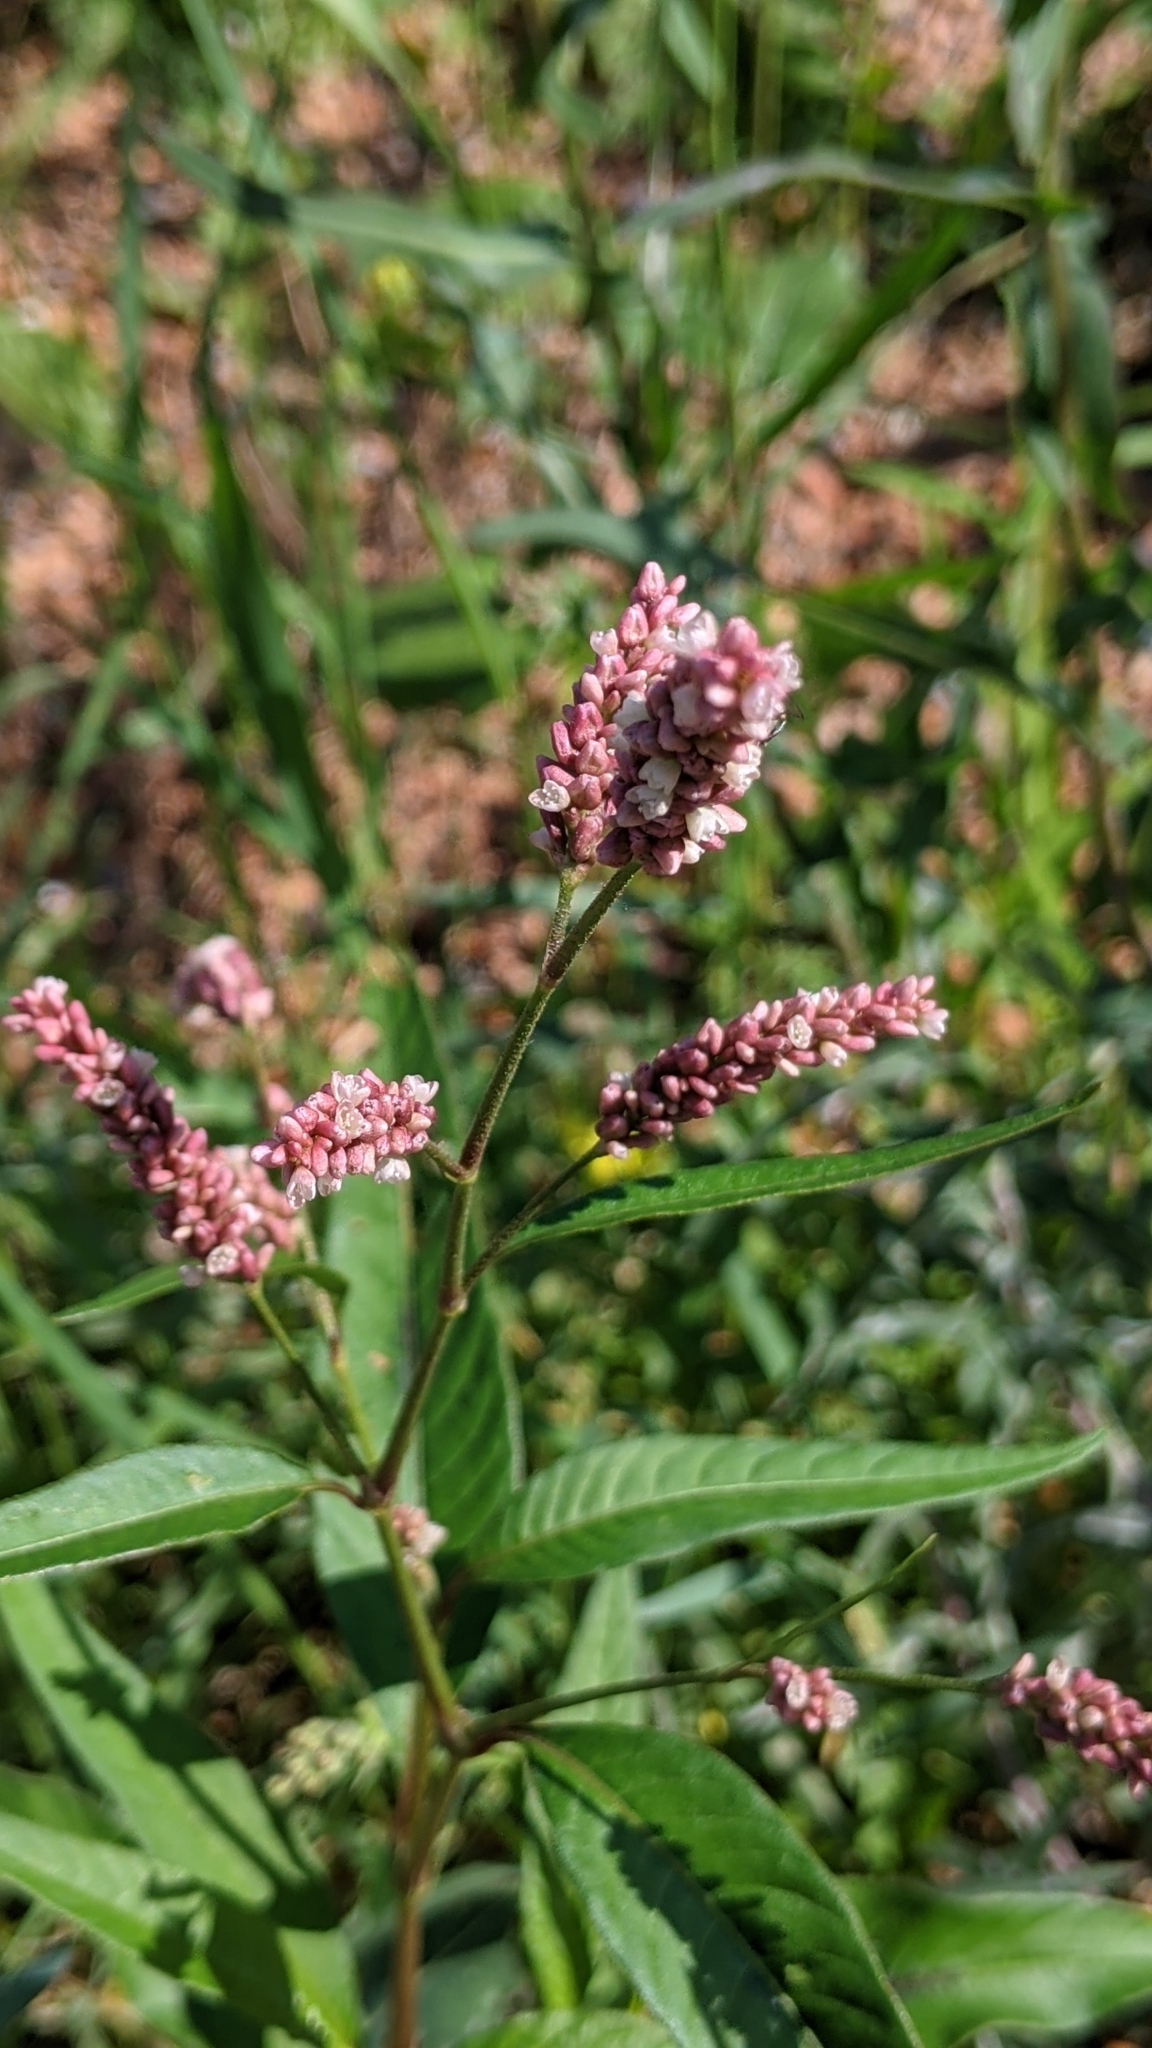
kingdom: Plantae
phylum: Tracheophyta
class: Magnoliopsida
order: Caryophyllales
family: Polygonaceae
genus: Persicaria
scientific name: Persicaria maculosa
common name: Redshank
